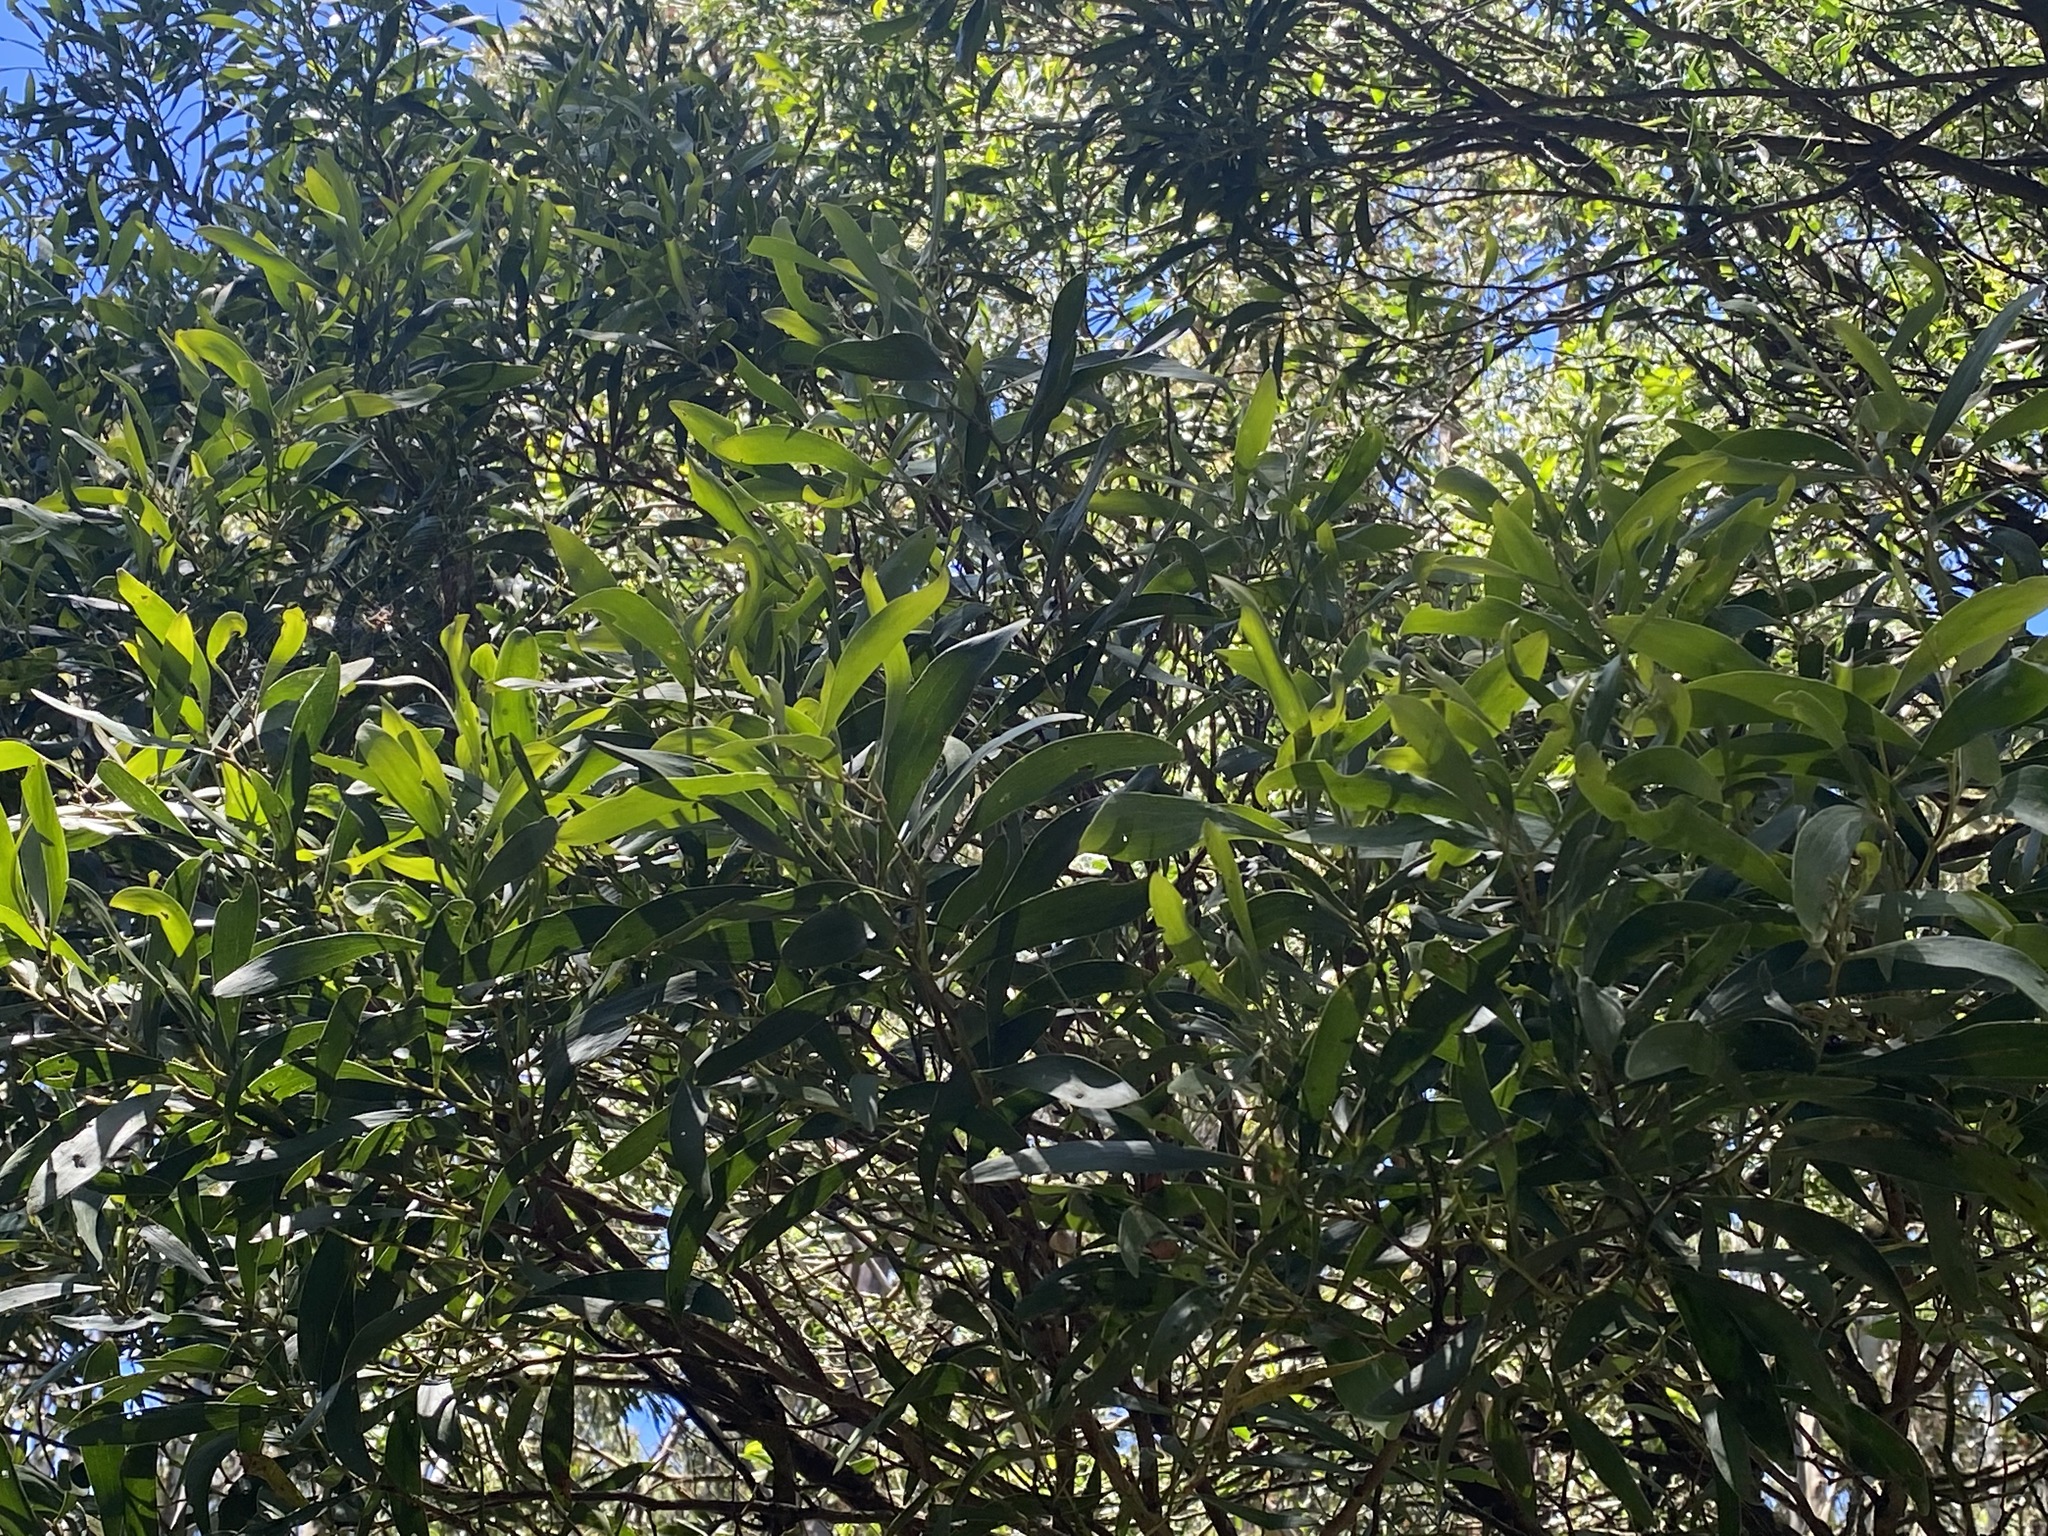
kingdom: Plantae
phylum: Tracheophyta
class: Magnoliopsida
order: Fabales
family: Fabaceae
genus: Acacia
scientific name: Acacia melanoxylon
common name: Blackwood
